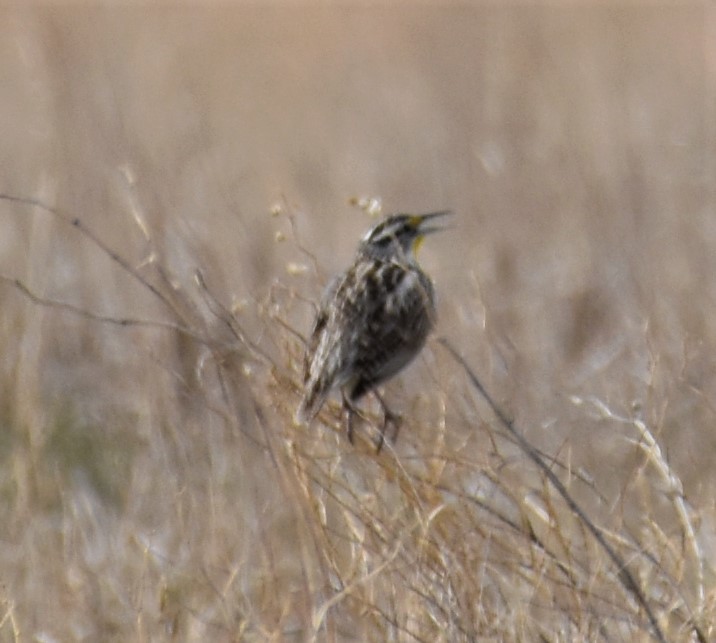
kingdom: Animalia
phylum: Chordata
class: Aves
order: Passeriformes
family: Icteridae
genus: Sturnella
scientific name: Sturnella neglecta
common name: Western meadowlark
